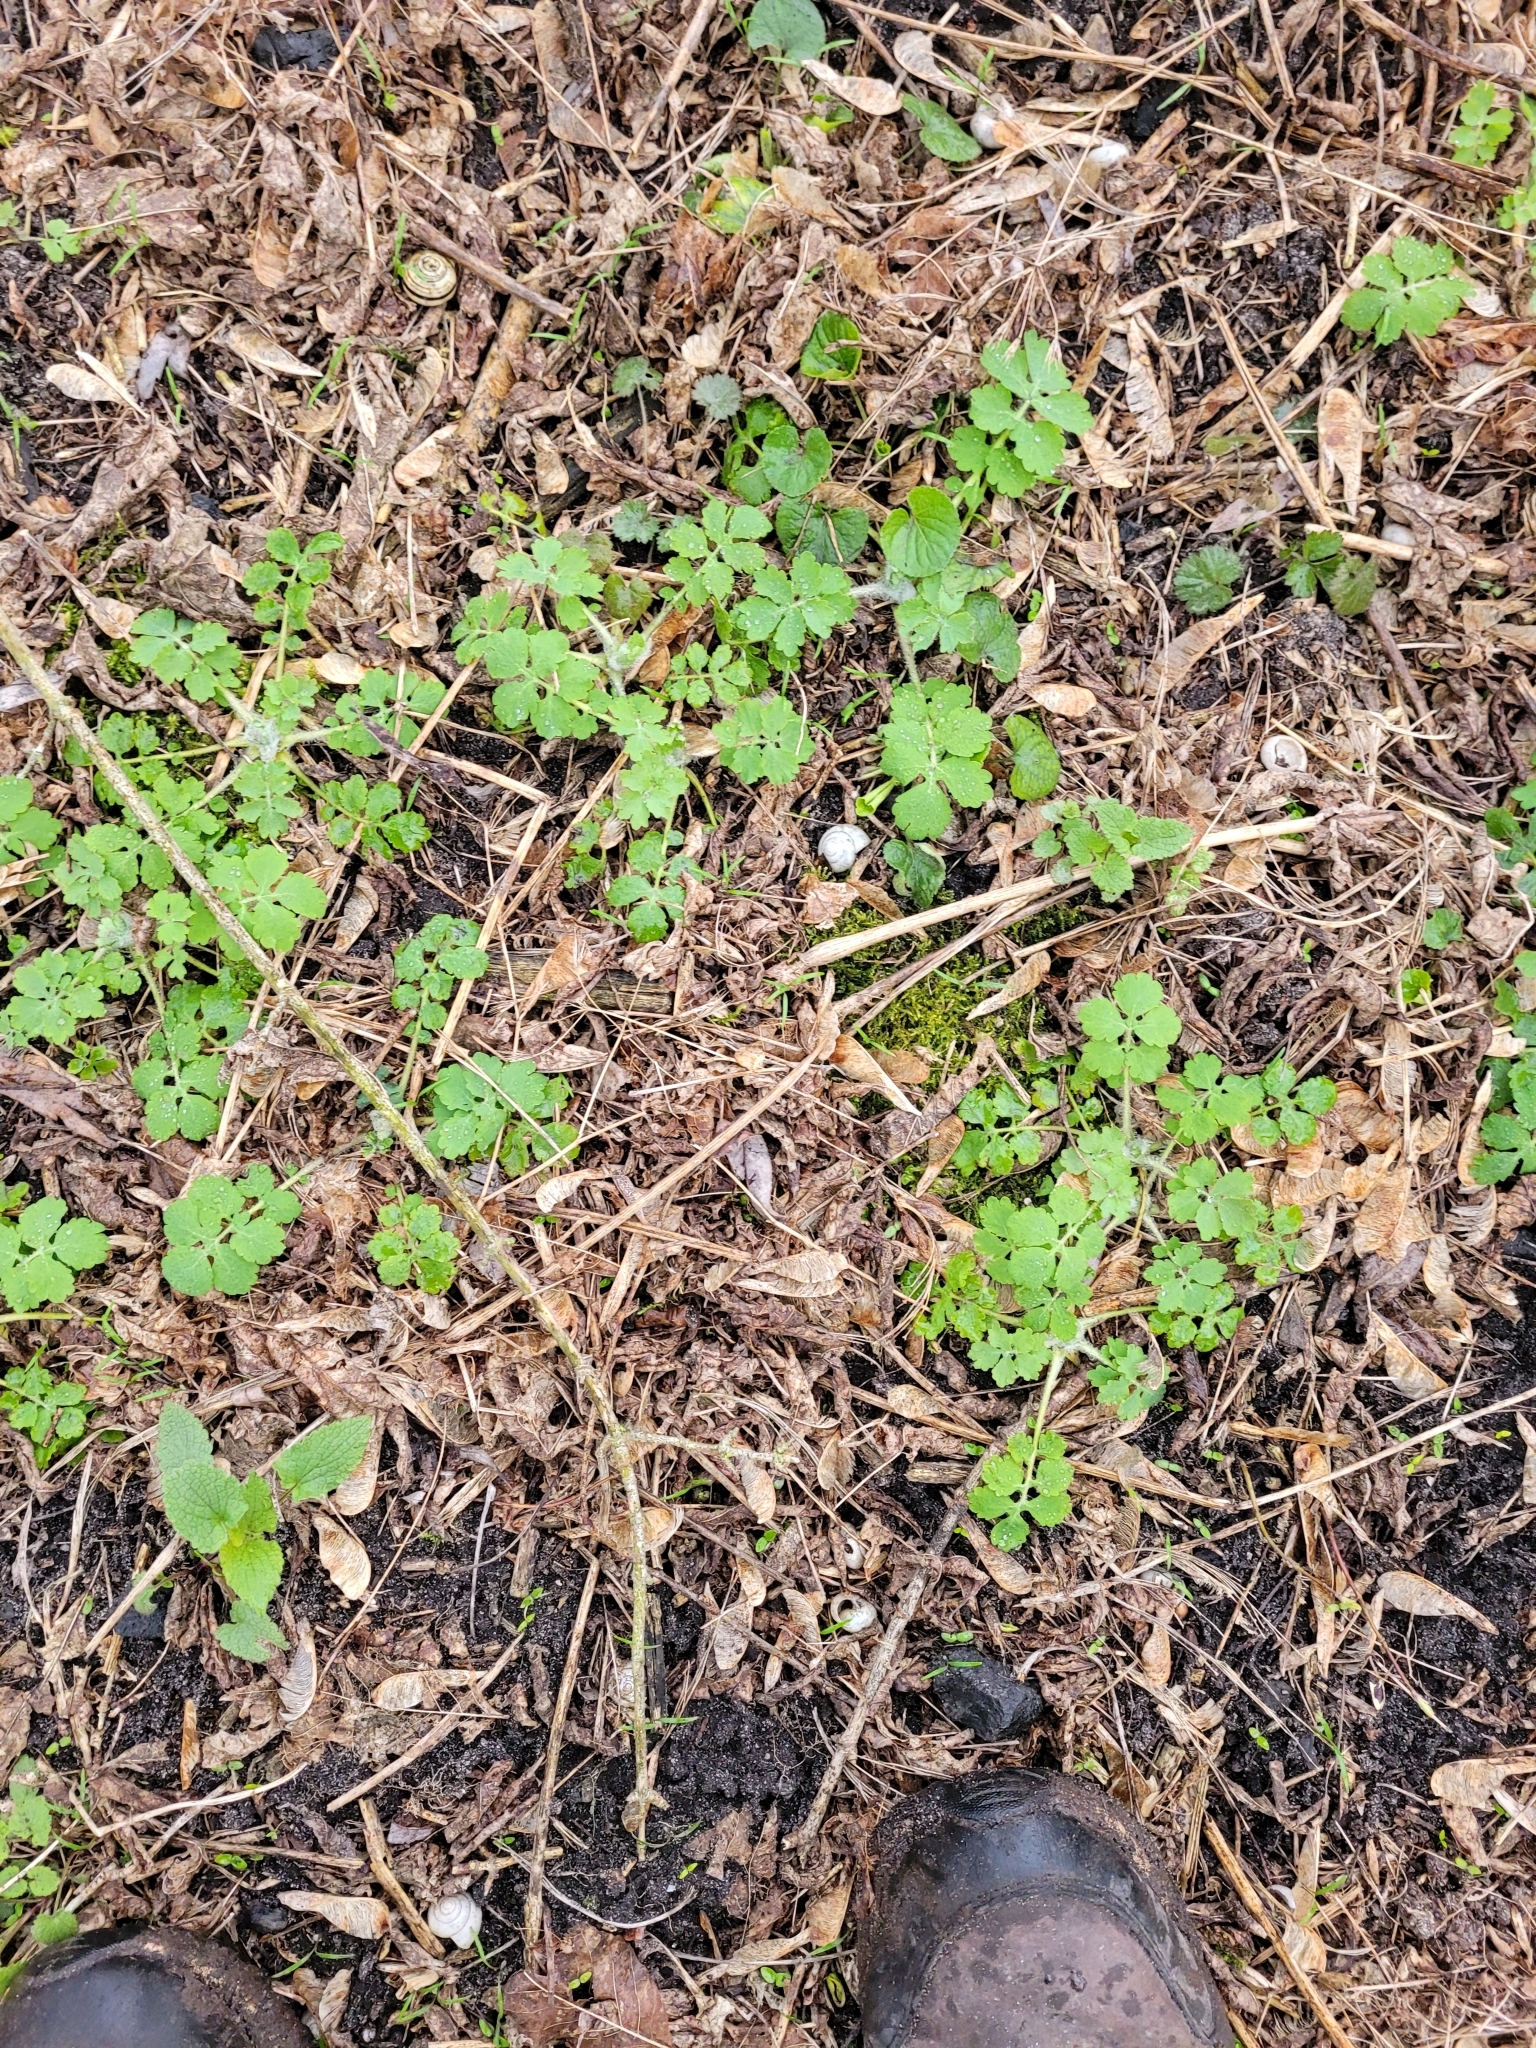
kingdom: Plantae
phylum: Tracheophyta
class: Magnoliopsida
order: Ranunculales
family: Papaveraceae
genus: Chelidonium
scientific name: Chelidonium majus
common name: Greater celandine
